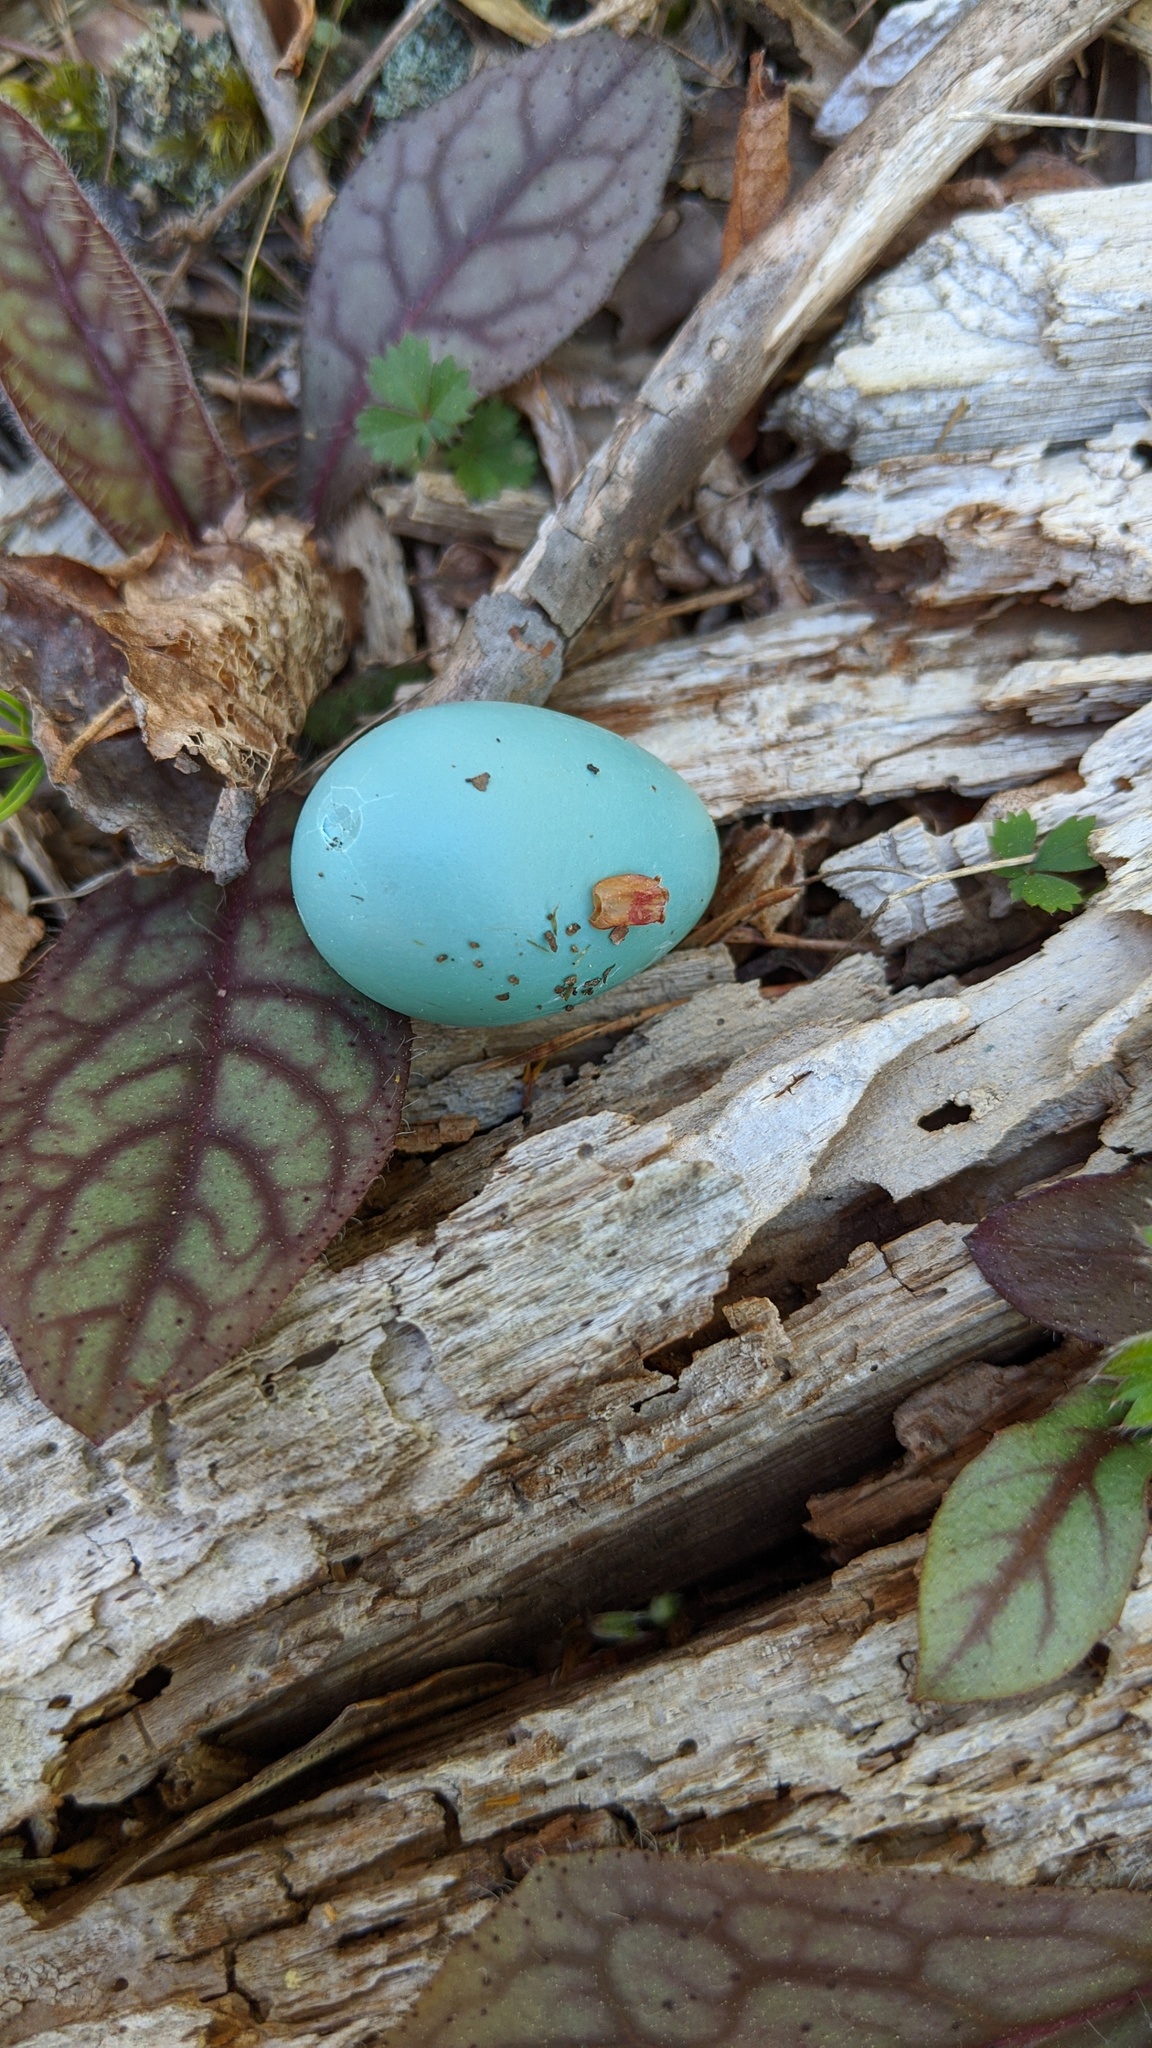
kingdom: Animalia
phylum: Chordata
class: Aves
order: Passeriformes
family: Turdidae
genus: Turdus
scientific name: Turdus migratorius
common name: American robin
